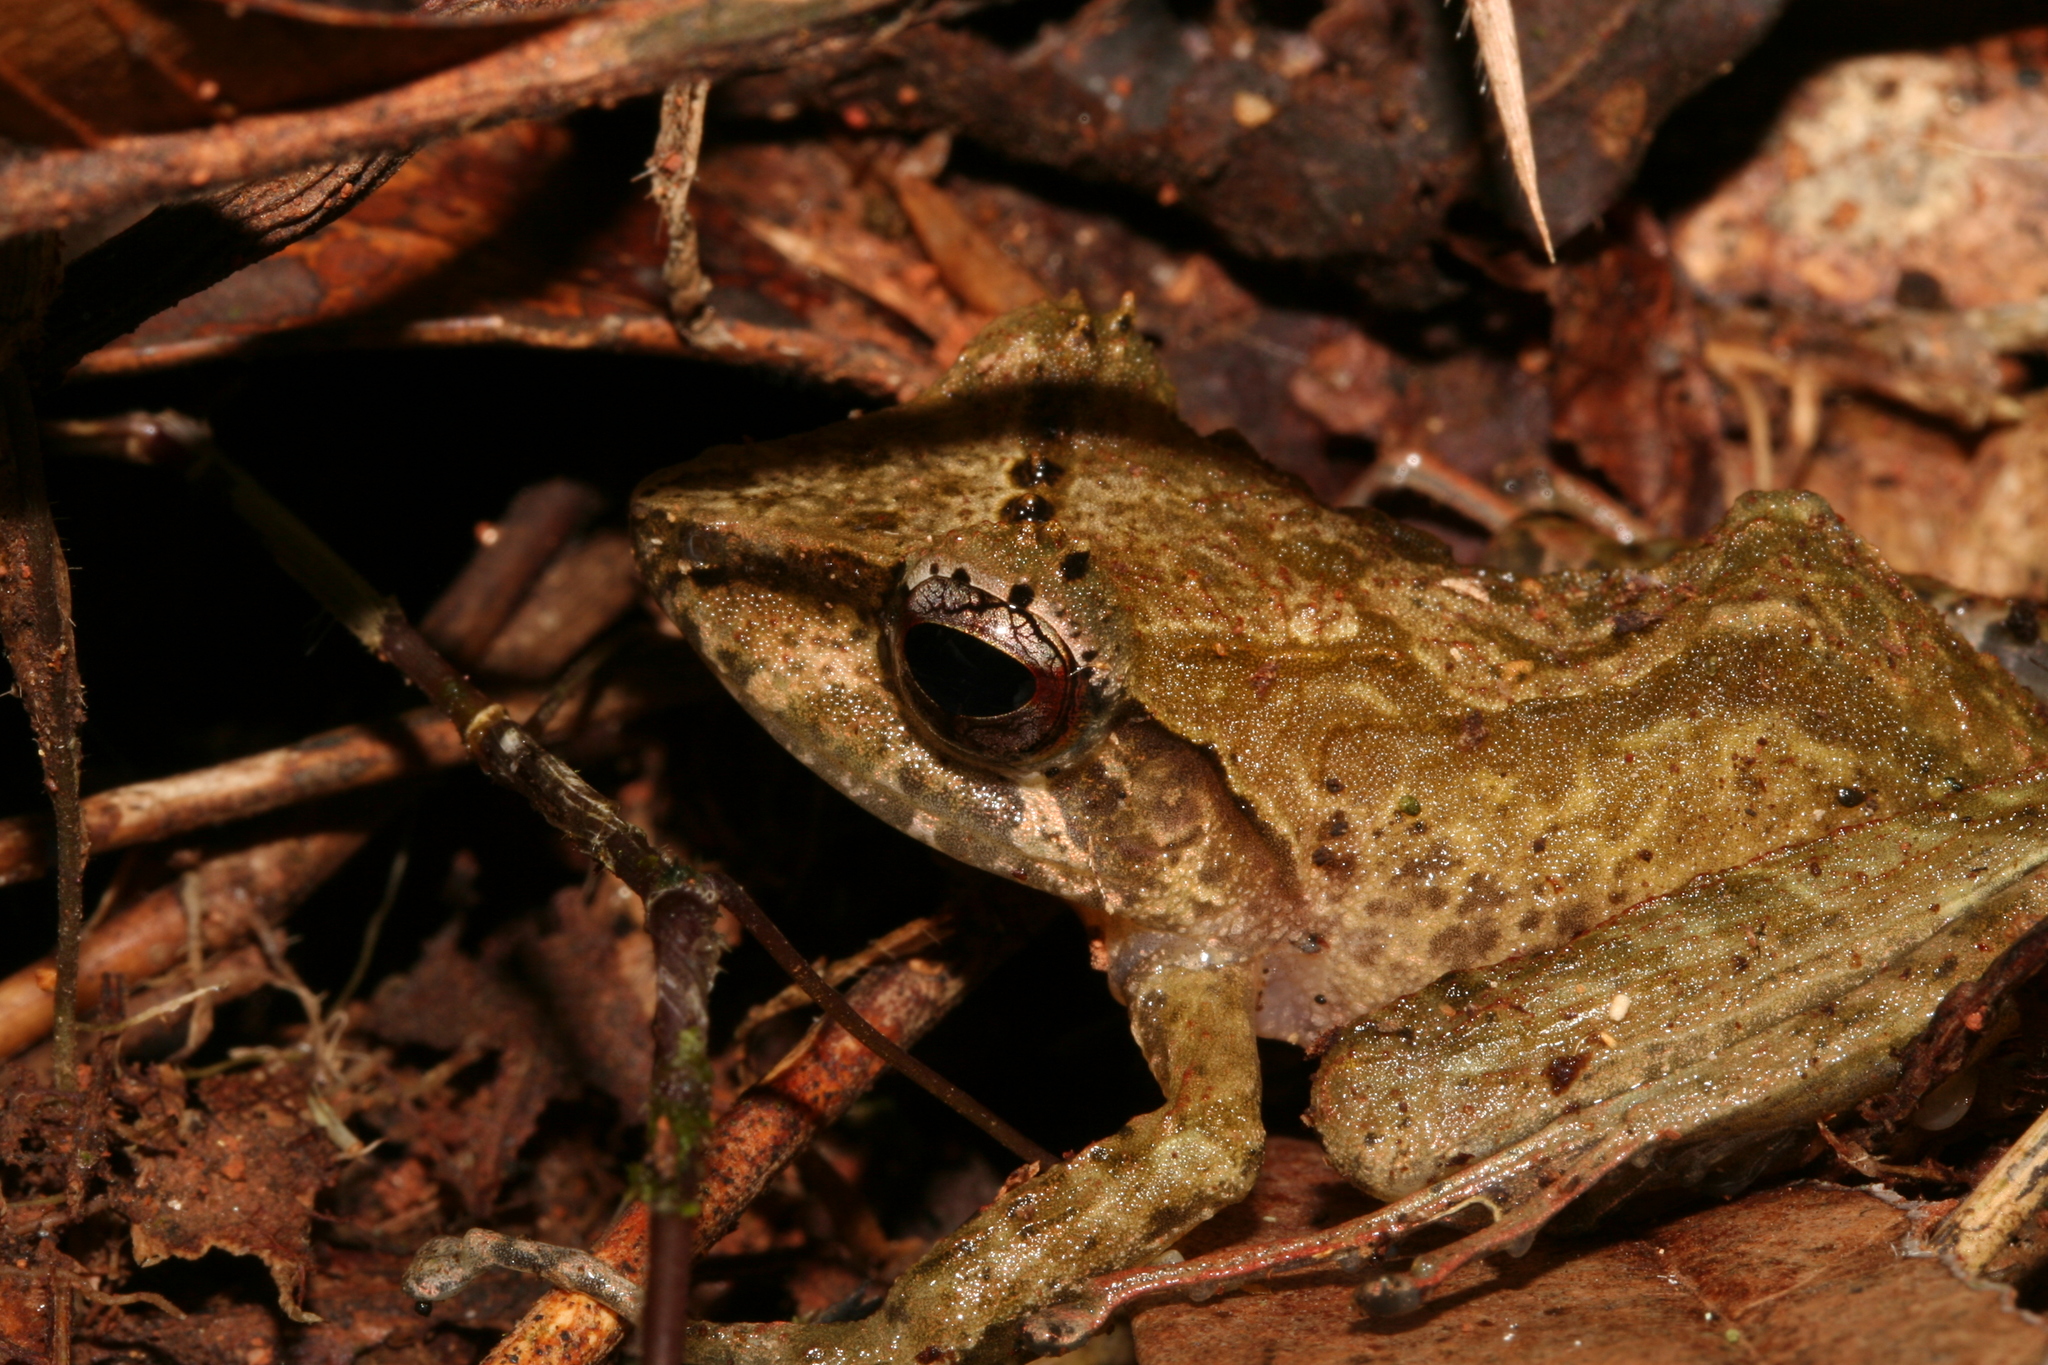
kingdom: Animalia
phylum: Chordata
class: Amphibia
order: Anura
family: Mantellidae
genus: Gephyromantis
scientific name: Gephyromantis cornutus
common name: Horned madagascar frog
